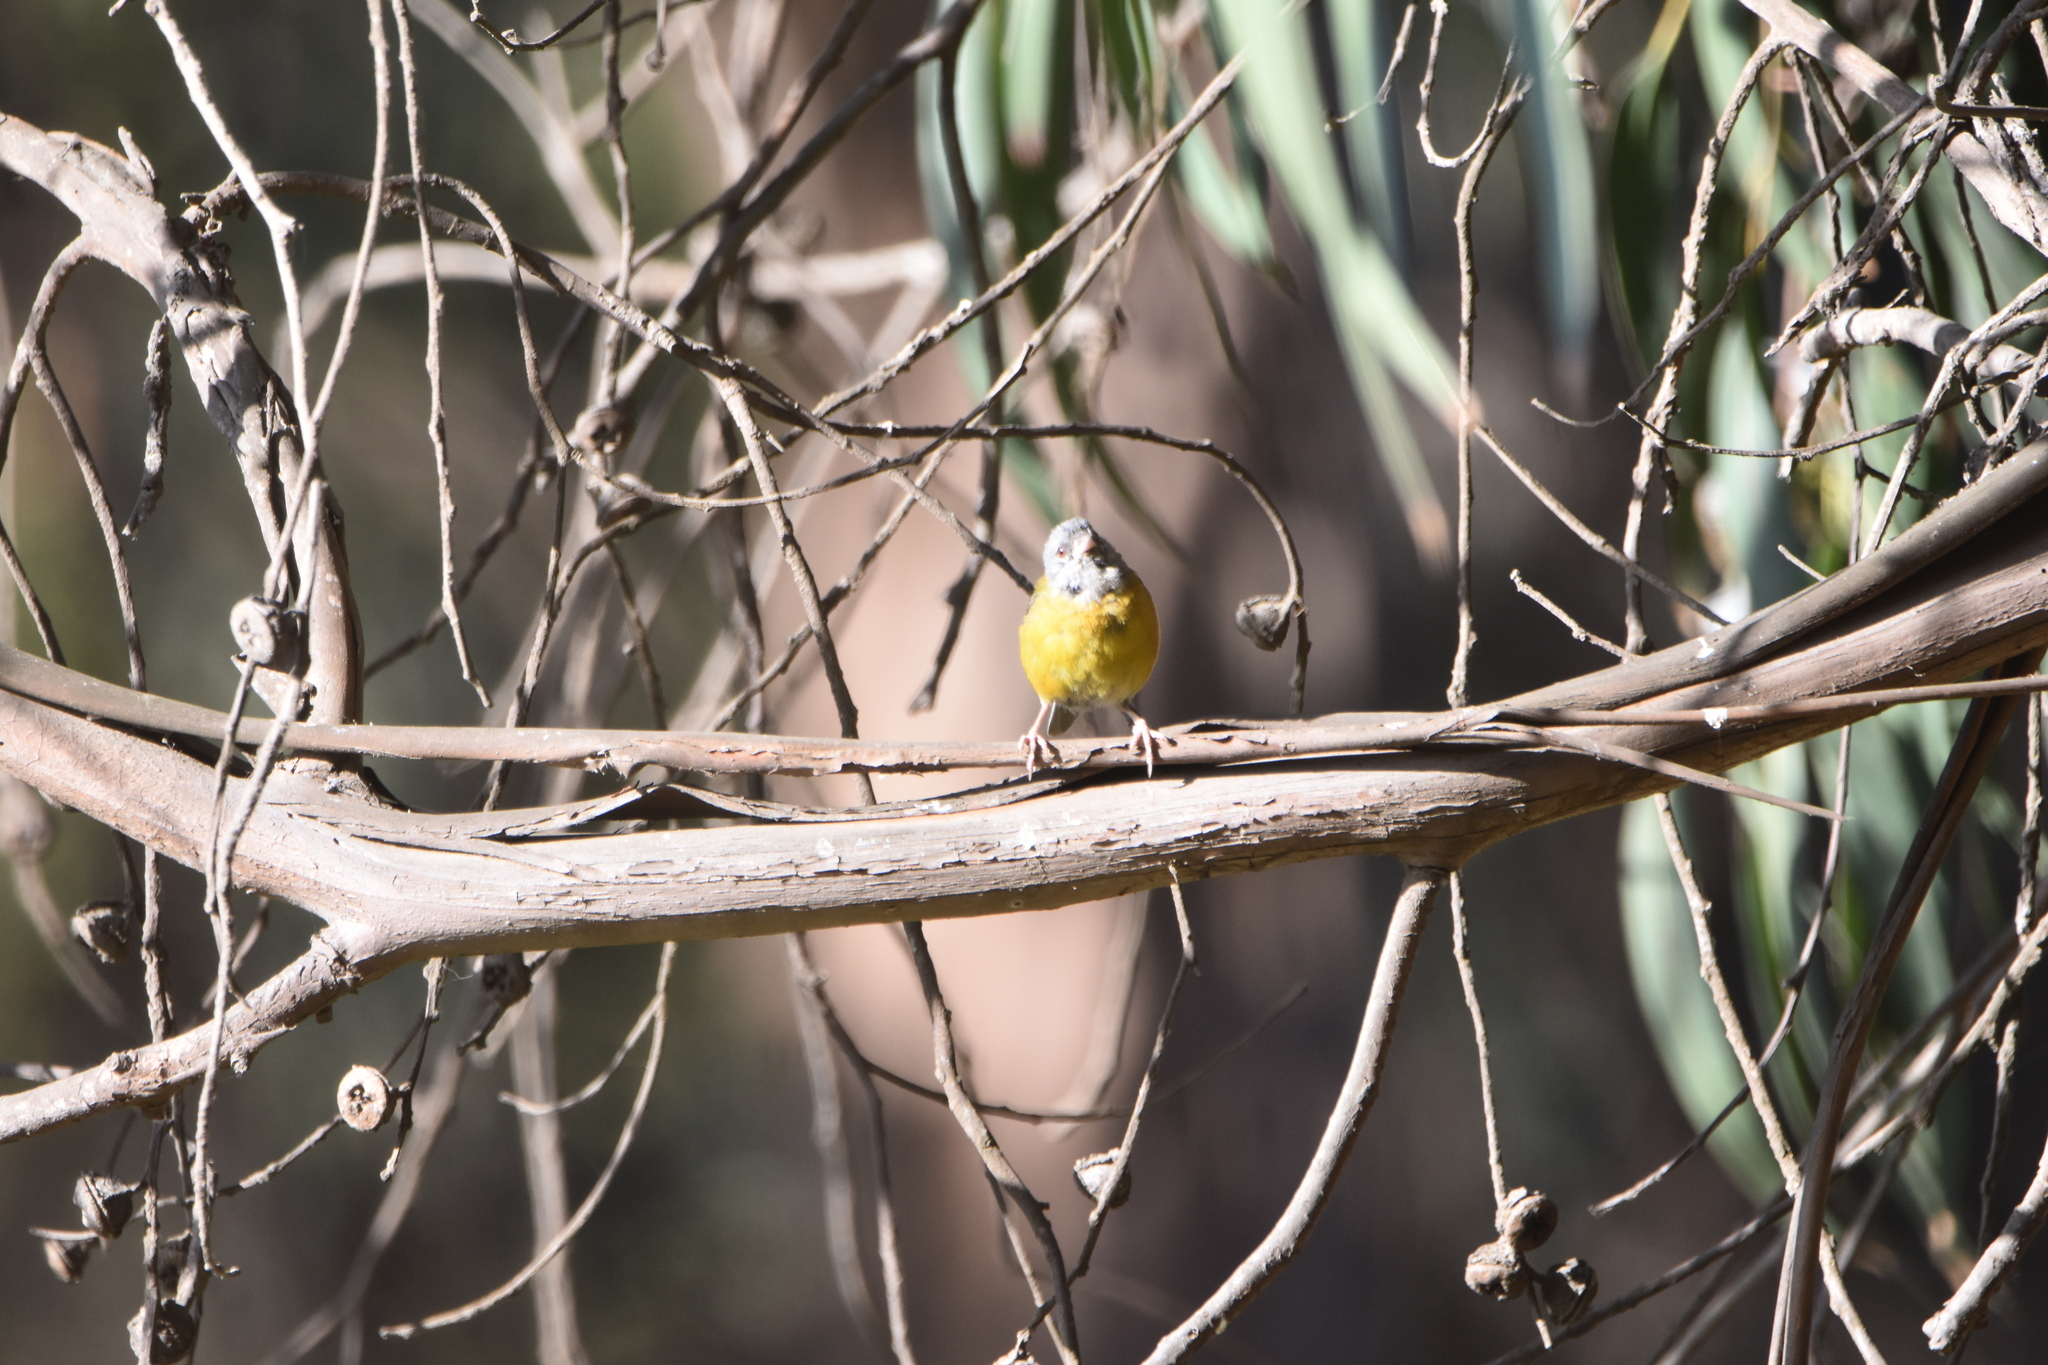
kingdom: Animalia
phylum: Chordata
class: Aves
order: Passeriformes
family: Thraupidae
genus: Phrygilus
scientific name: Phrygilus gayi
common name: Grey-hooded sierra finch
